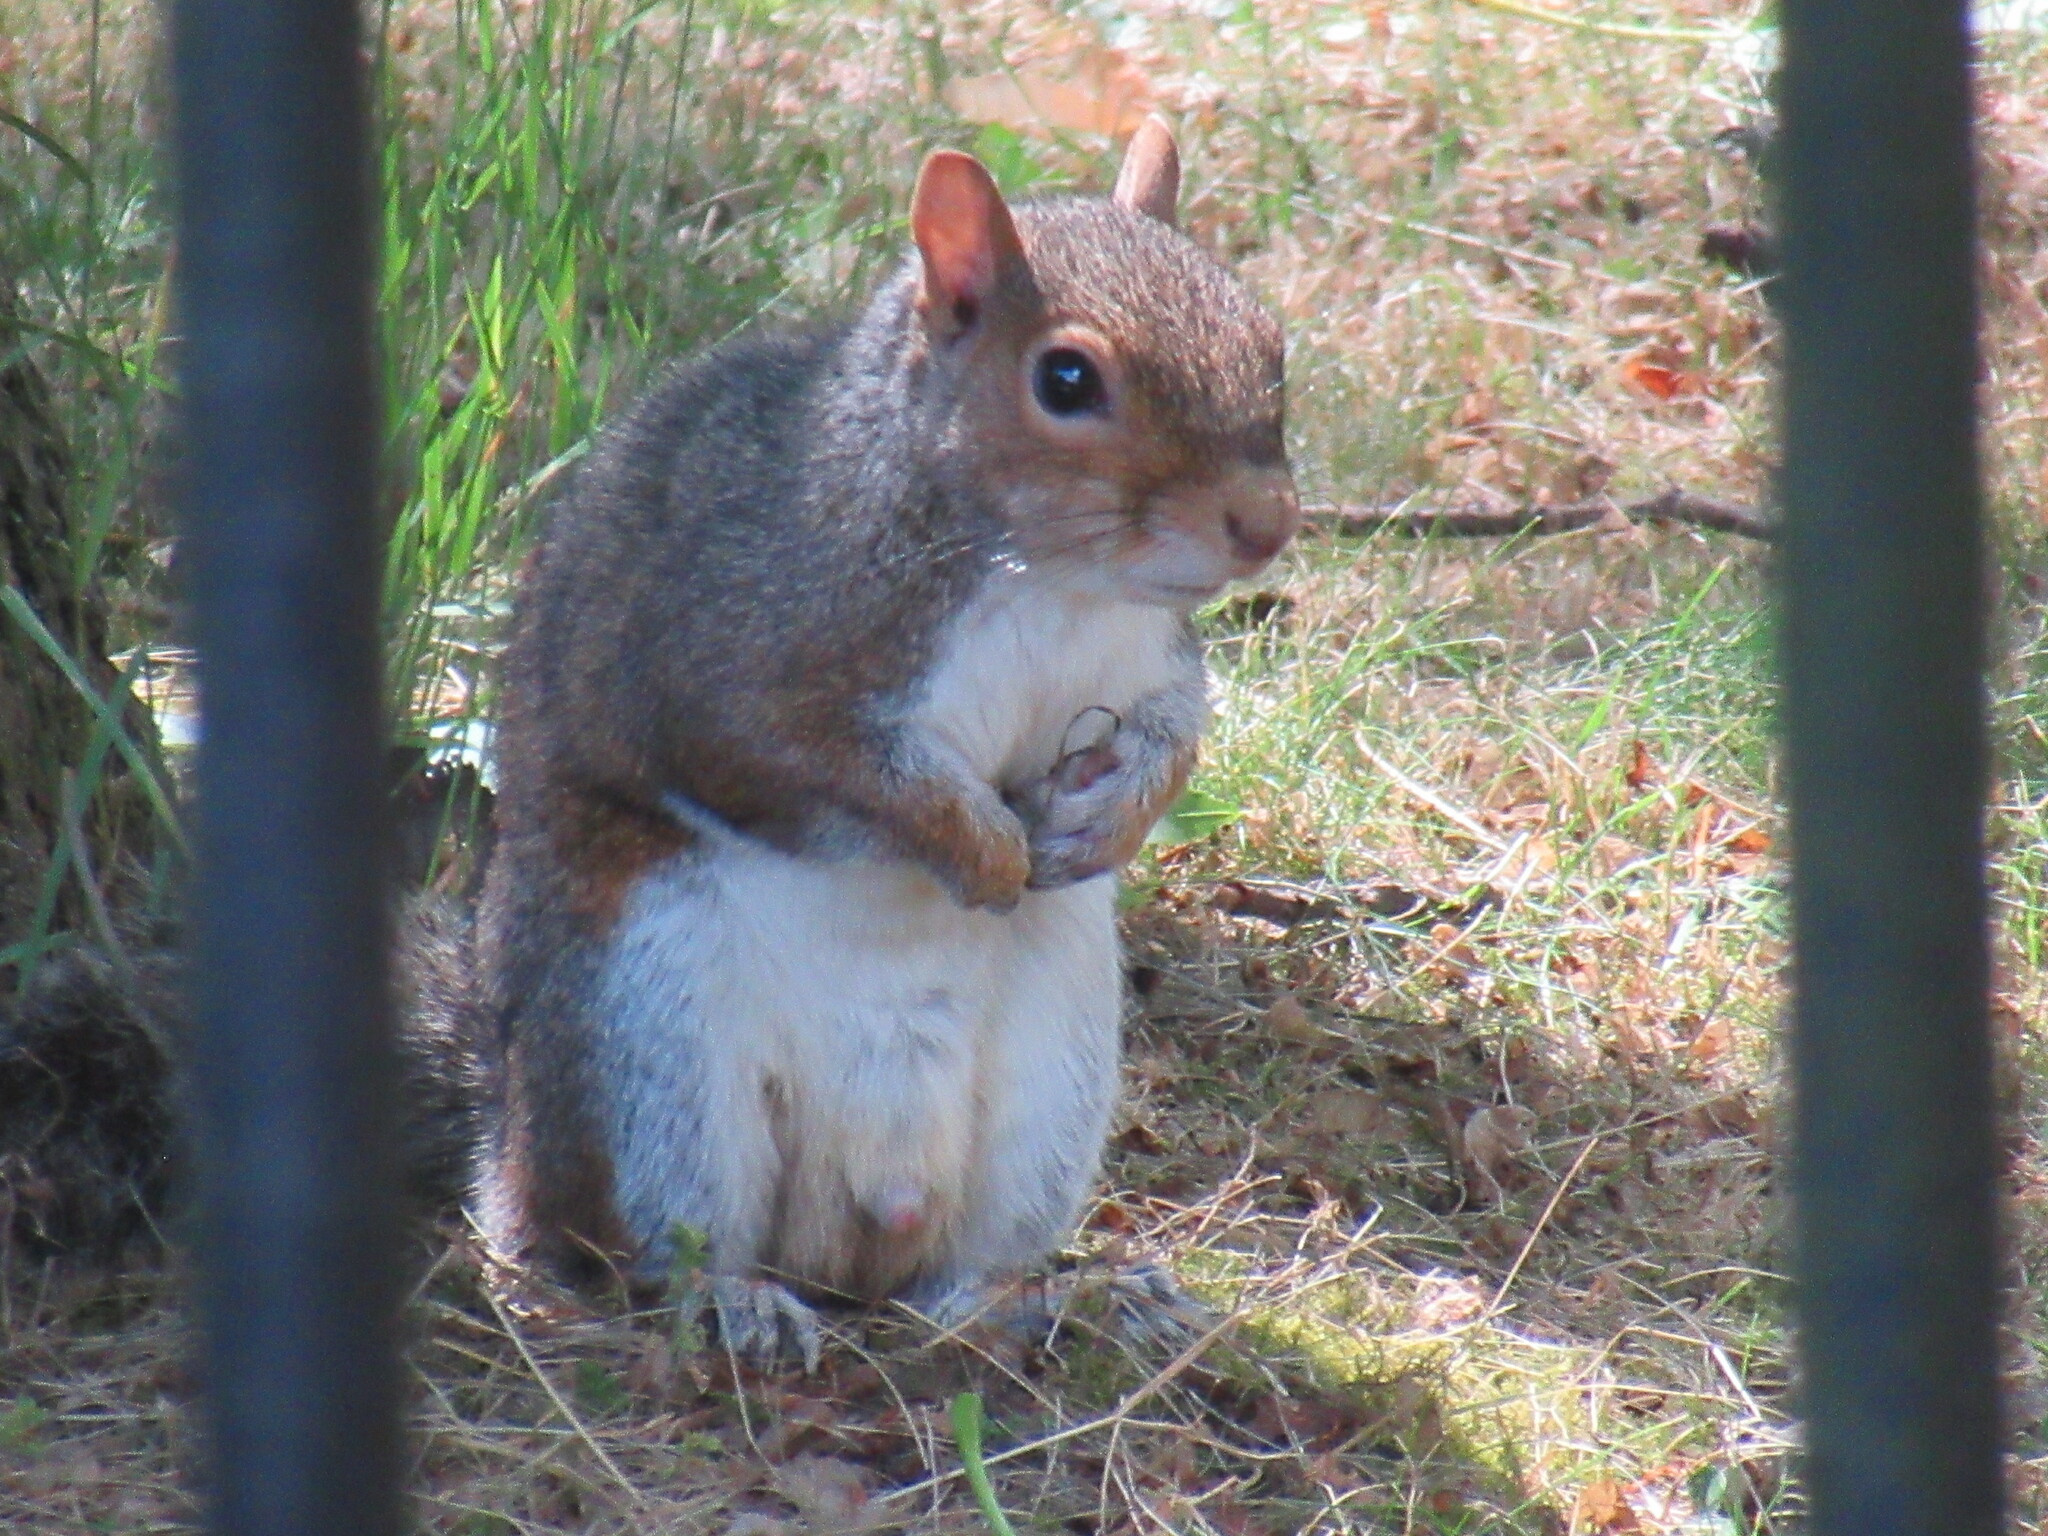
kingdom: Animalia
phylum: Chordata
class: Mammalia
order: Rodentia
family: Sciuridae
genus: Sciurus
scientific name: Sciurus carolinensis
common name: Eastern gray squirrel
